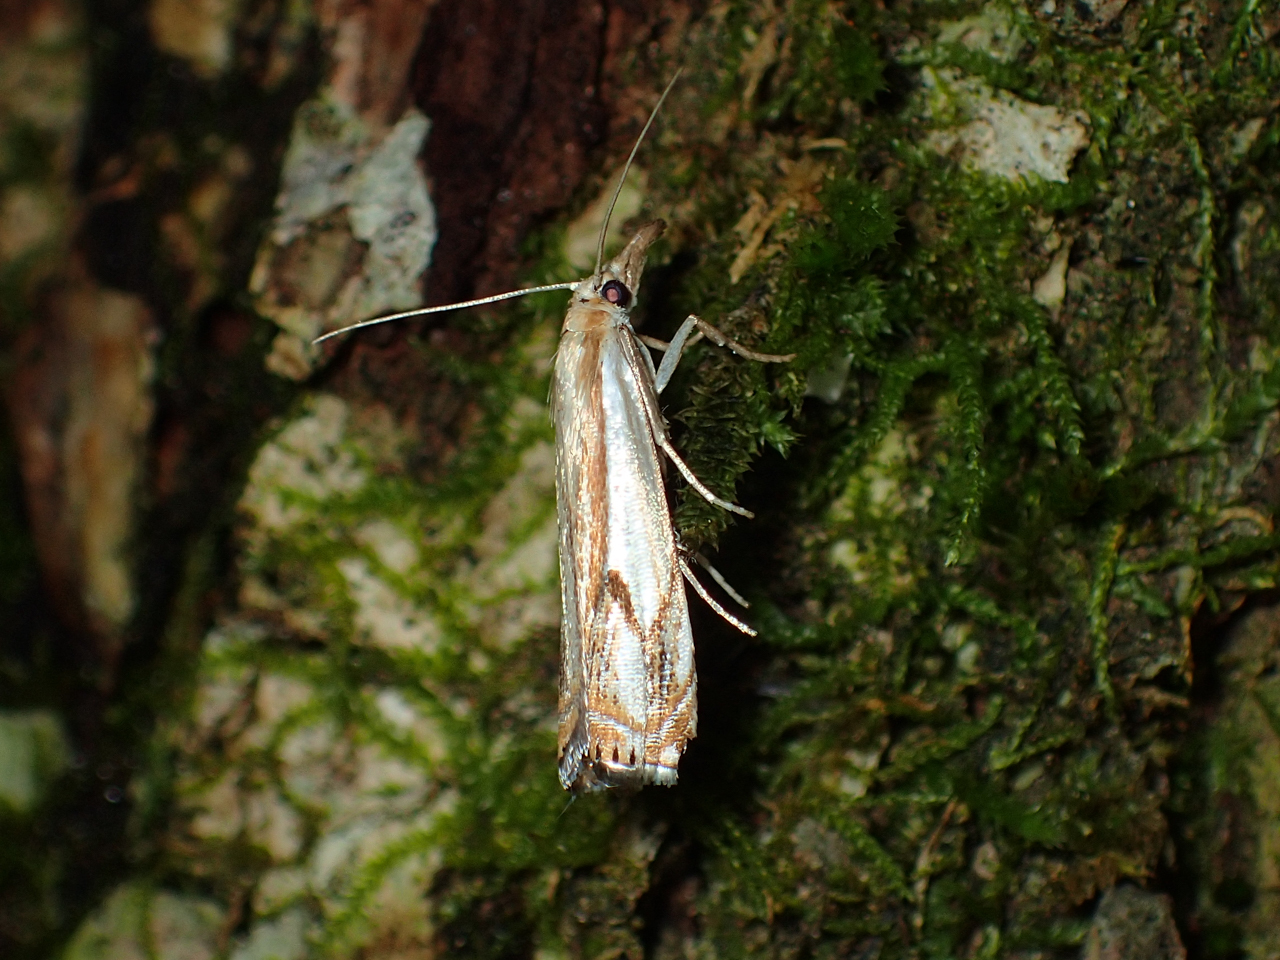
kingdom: Animalia
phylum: Arthropoda
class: Insecta
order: Lepidoptera
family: Crambidae
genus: Crambus
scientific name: Crambus agitatellus
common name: Double-banded grass-veneer
